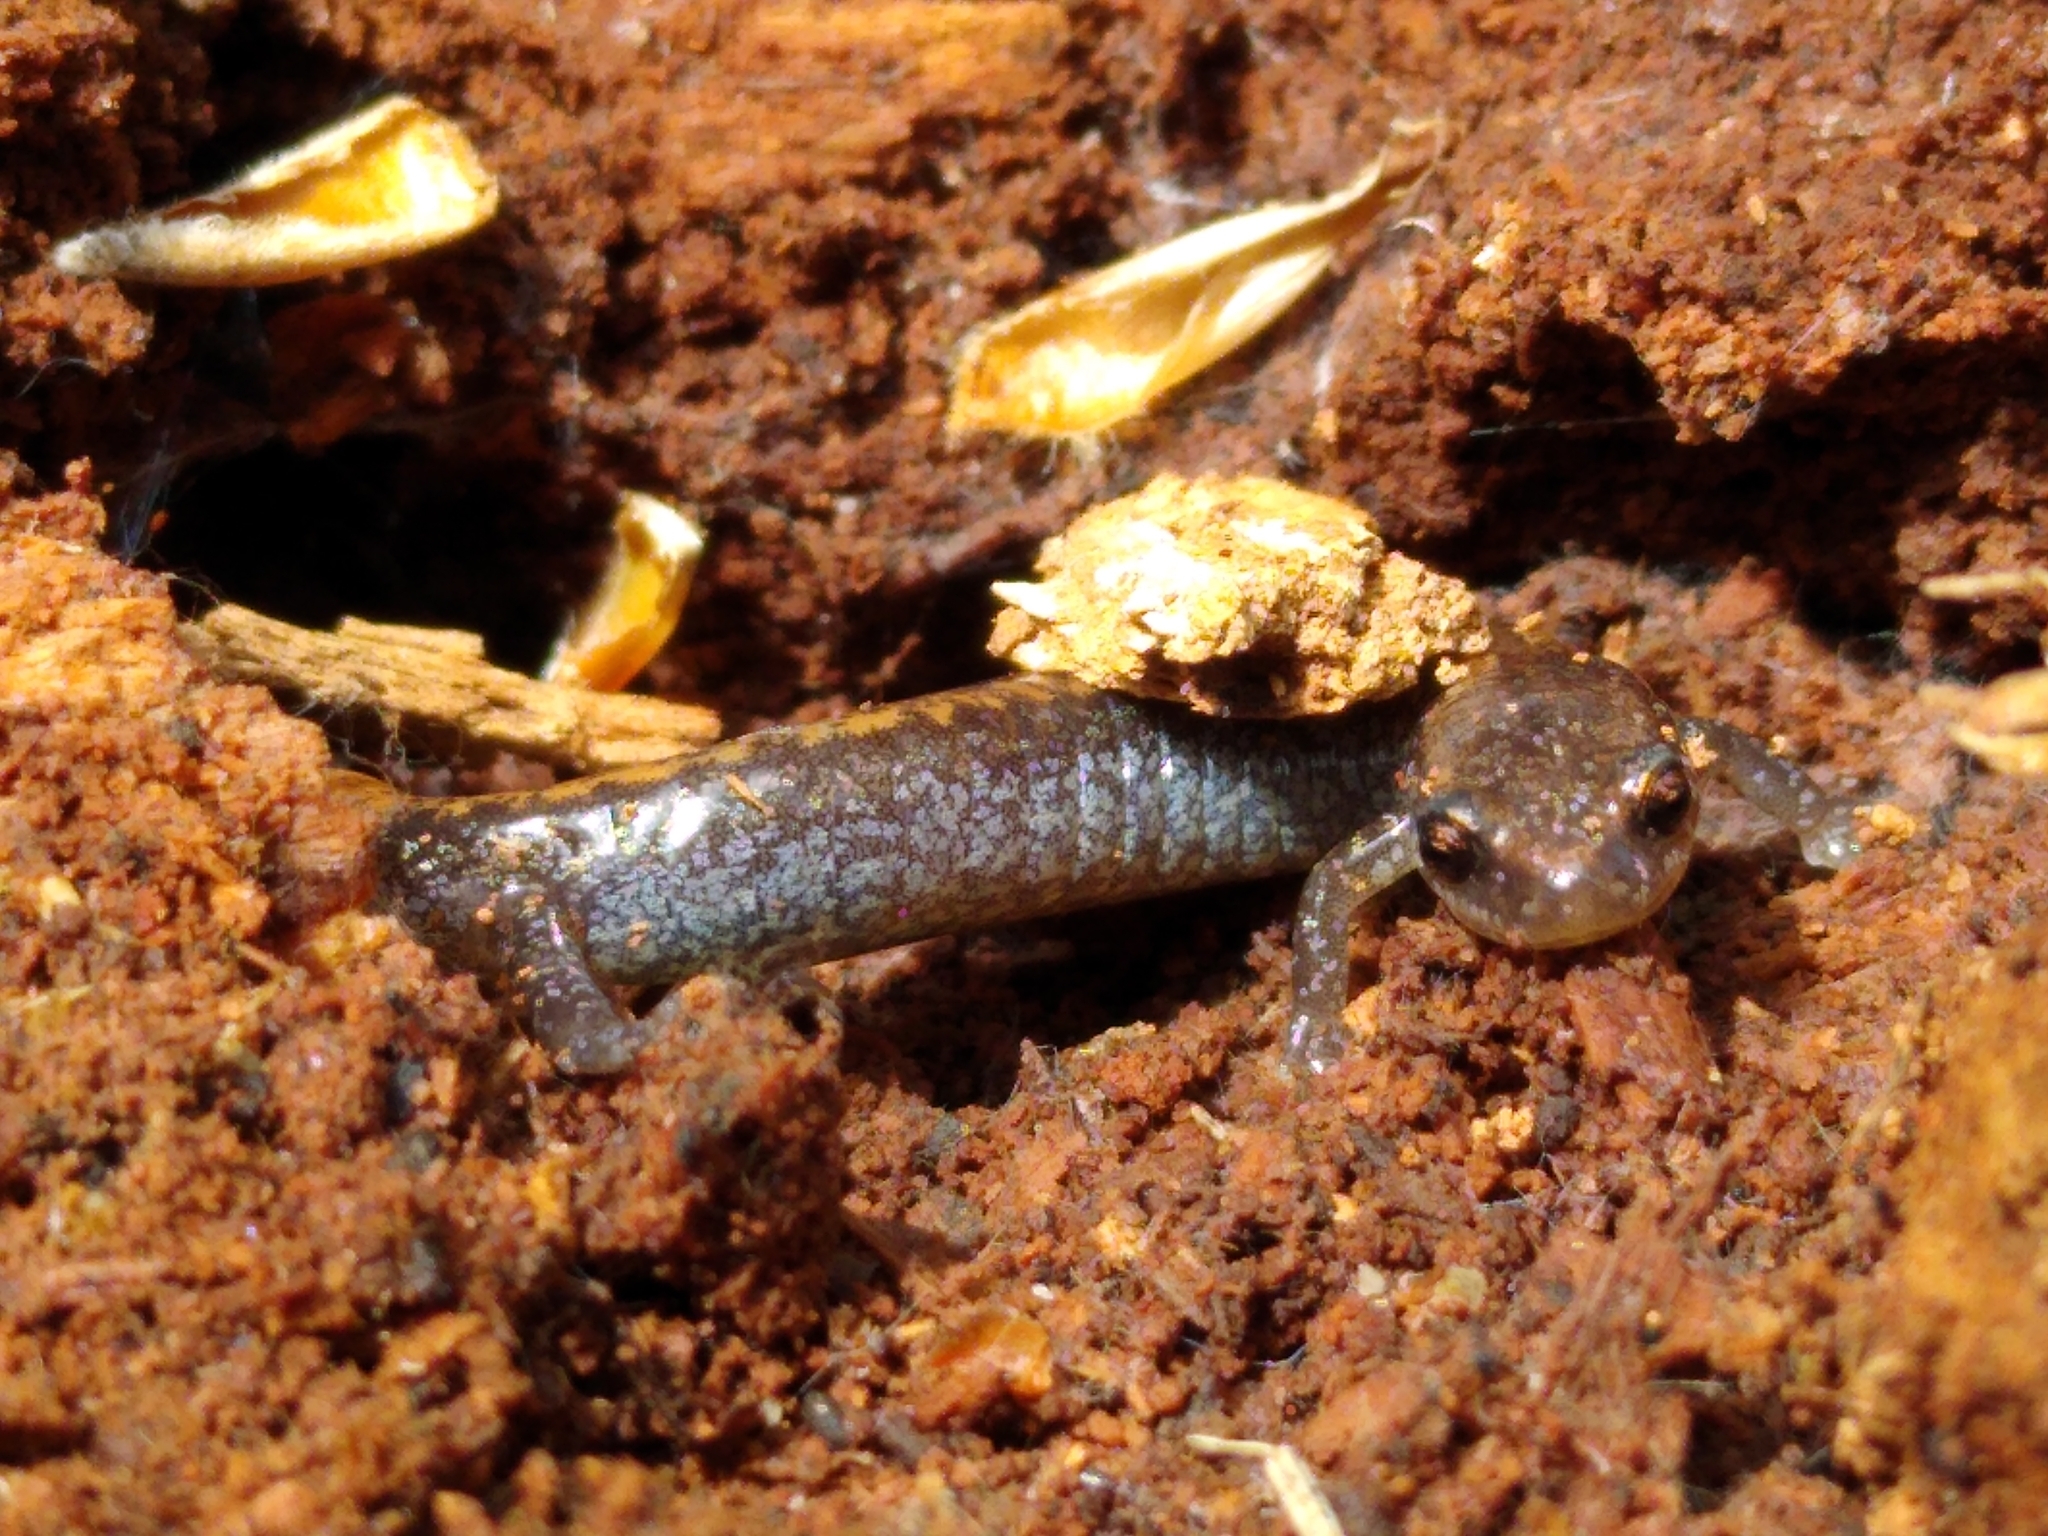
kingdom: Animalia
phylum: Chordata
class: Amphibia
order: Caudata
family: Plethodontidae
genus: Plethodon
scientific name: Plethodon cinereus
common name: Redback salamander
